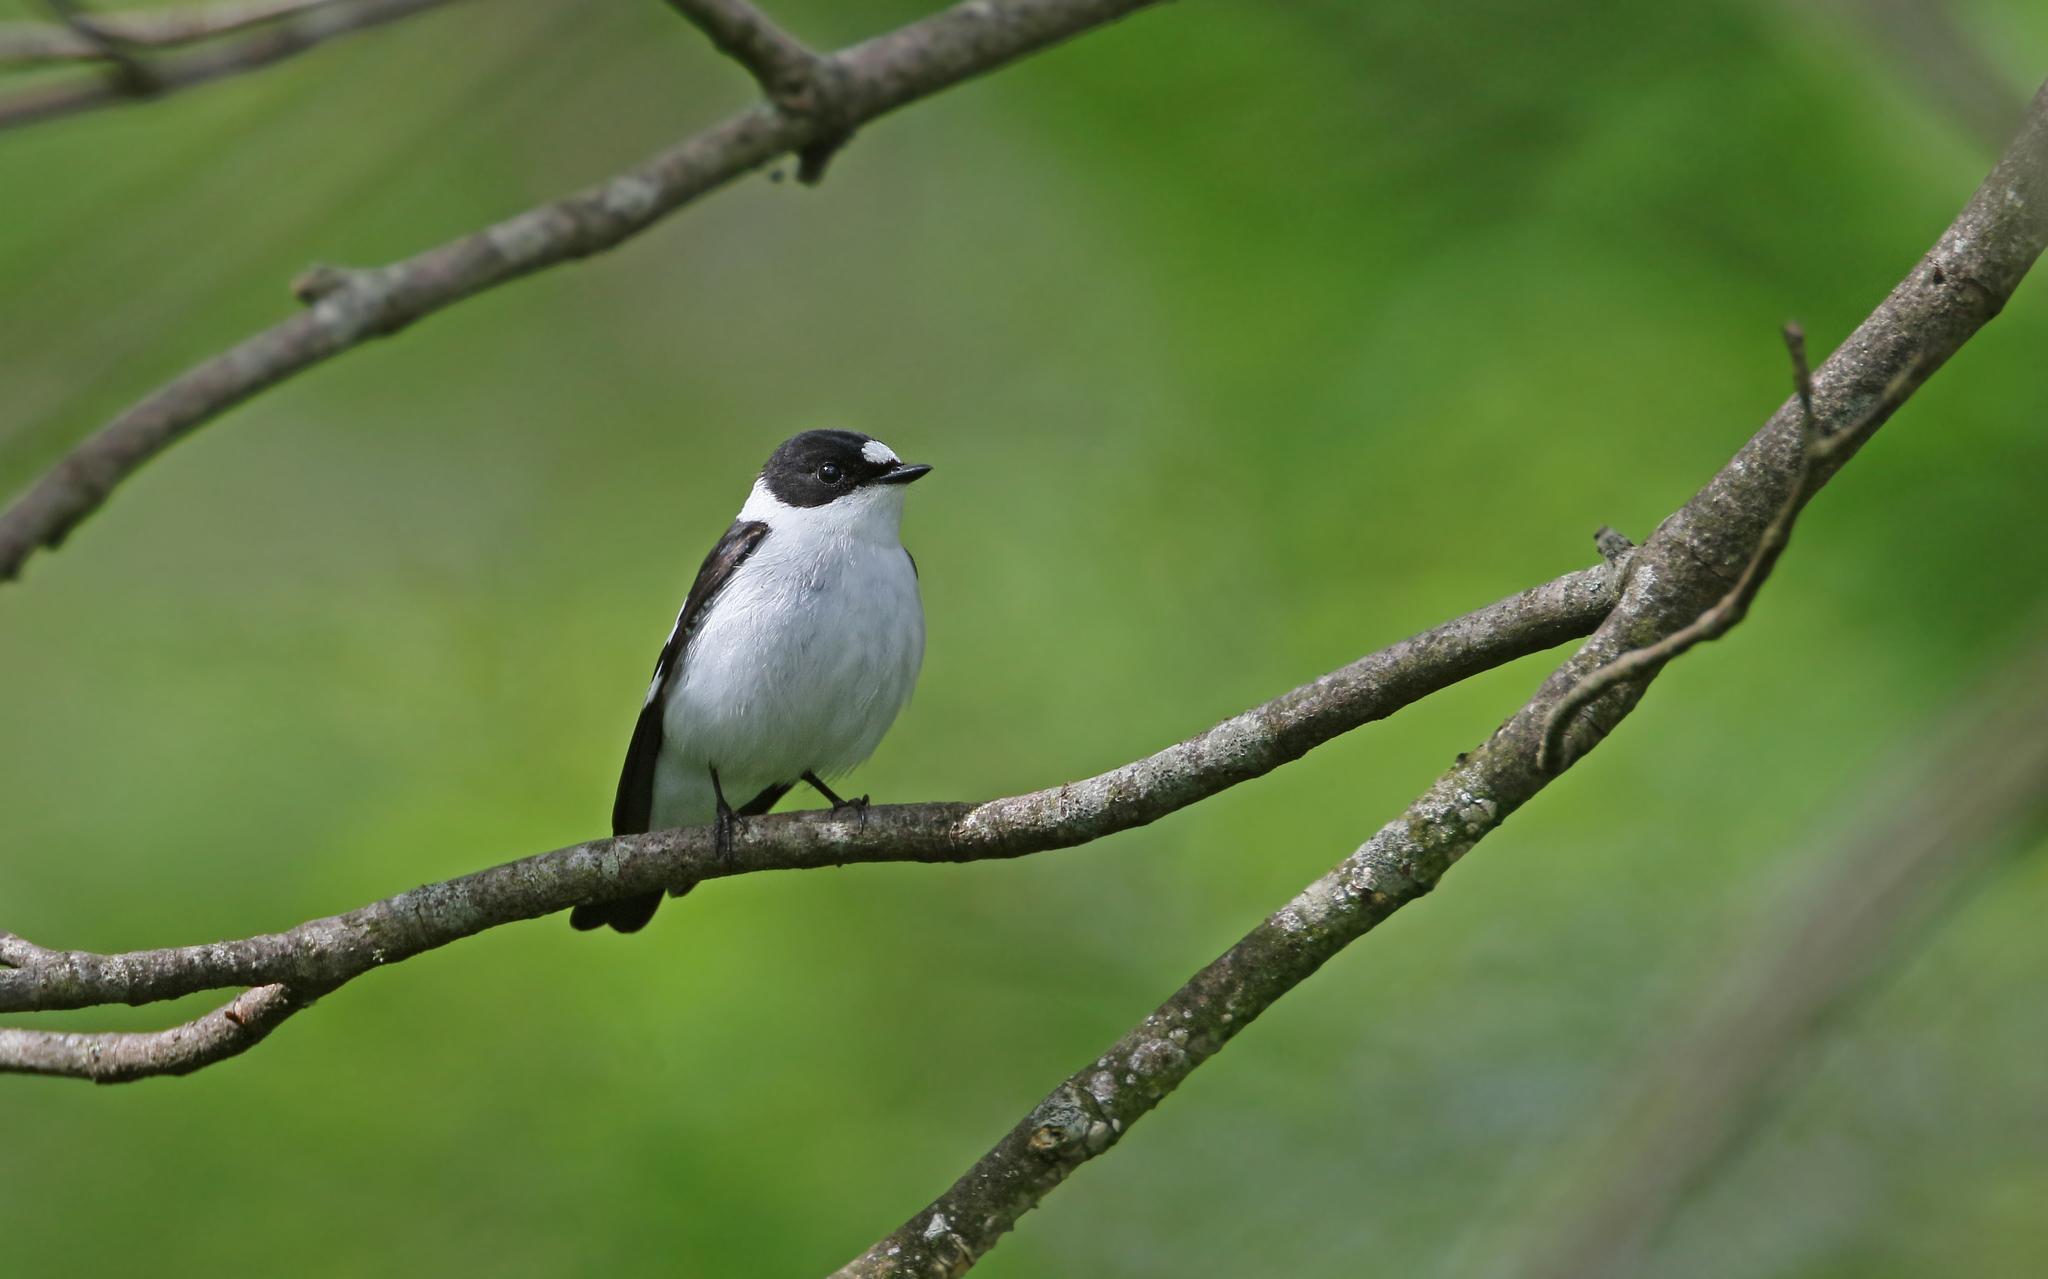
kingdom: Animalia
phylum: Chordata
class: Aves
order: Passeriformes
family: Muscicapidae
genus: Ficedula
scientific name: Ficedula albicollis
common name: Collared flycatcher
